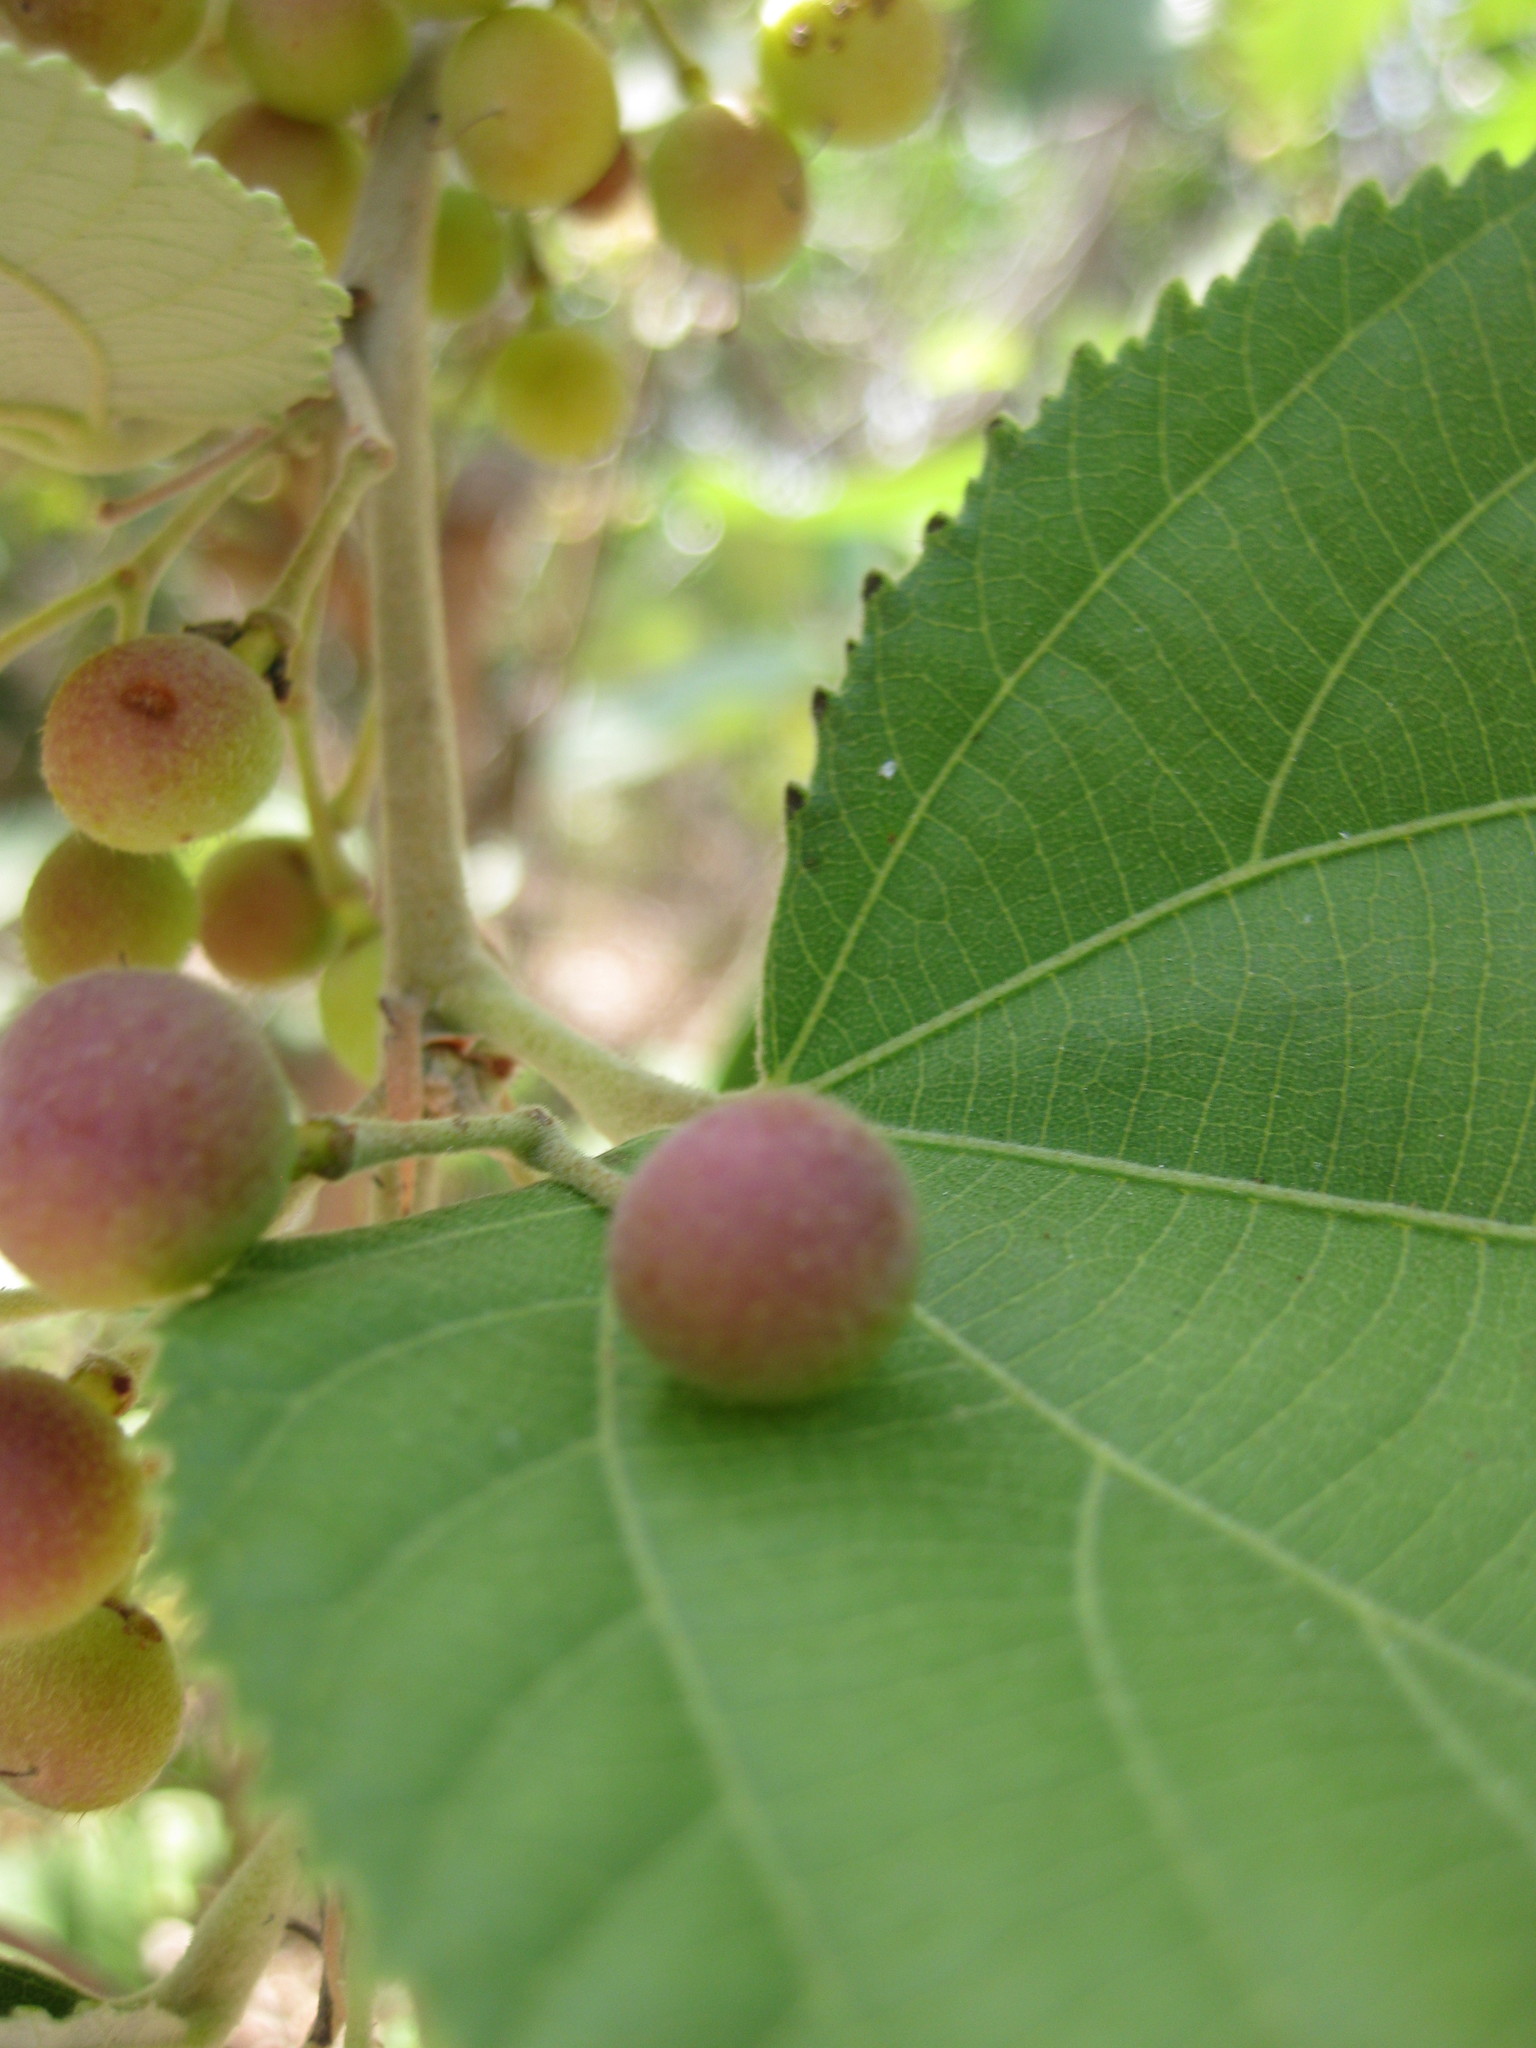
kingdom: Plantae
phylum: Tracheophyta
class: Magnoliopsida
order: Malvales
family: Malvaceae
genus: Grewia
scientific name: Grewia asiatica
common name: Phalsa
